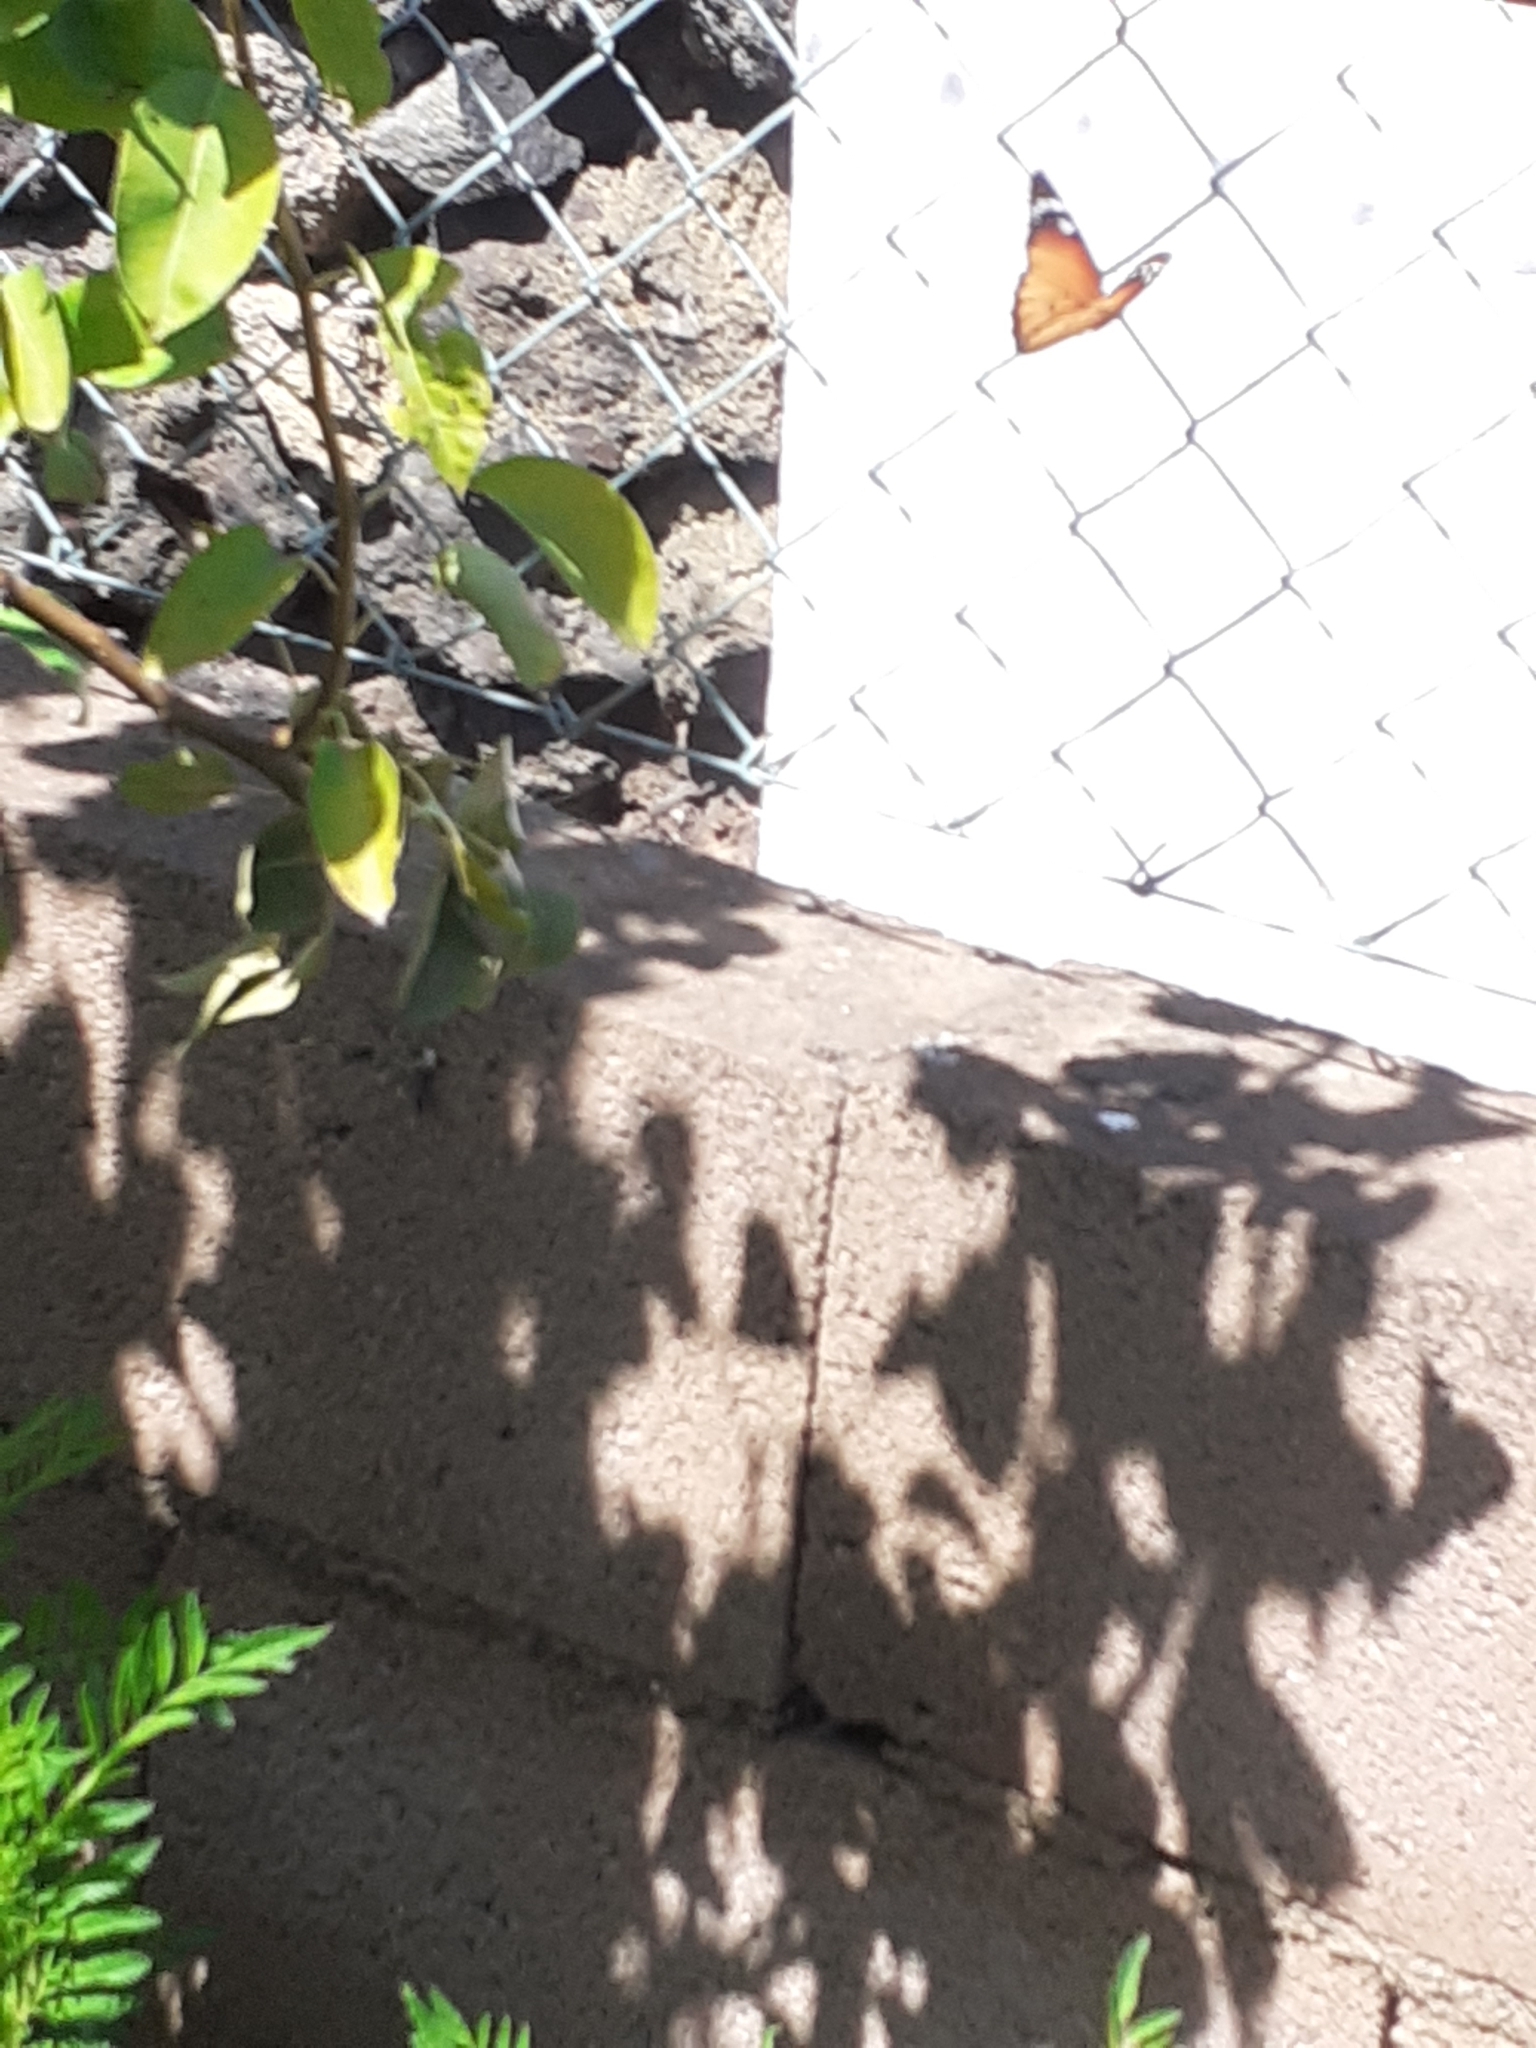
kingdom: Animalia
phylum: Arthropoda
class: Insecta
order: Lepidoptera
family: Nymphalidae
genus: Danaus
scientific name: Danaus chrysippus
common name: Plain tiger
